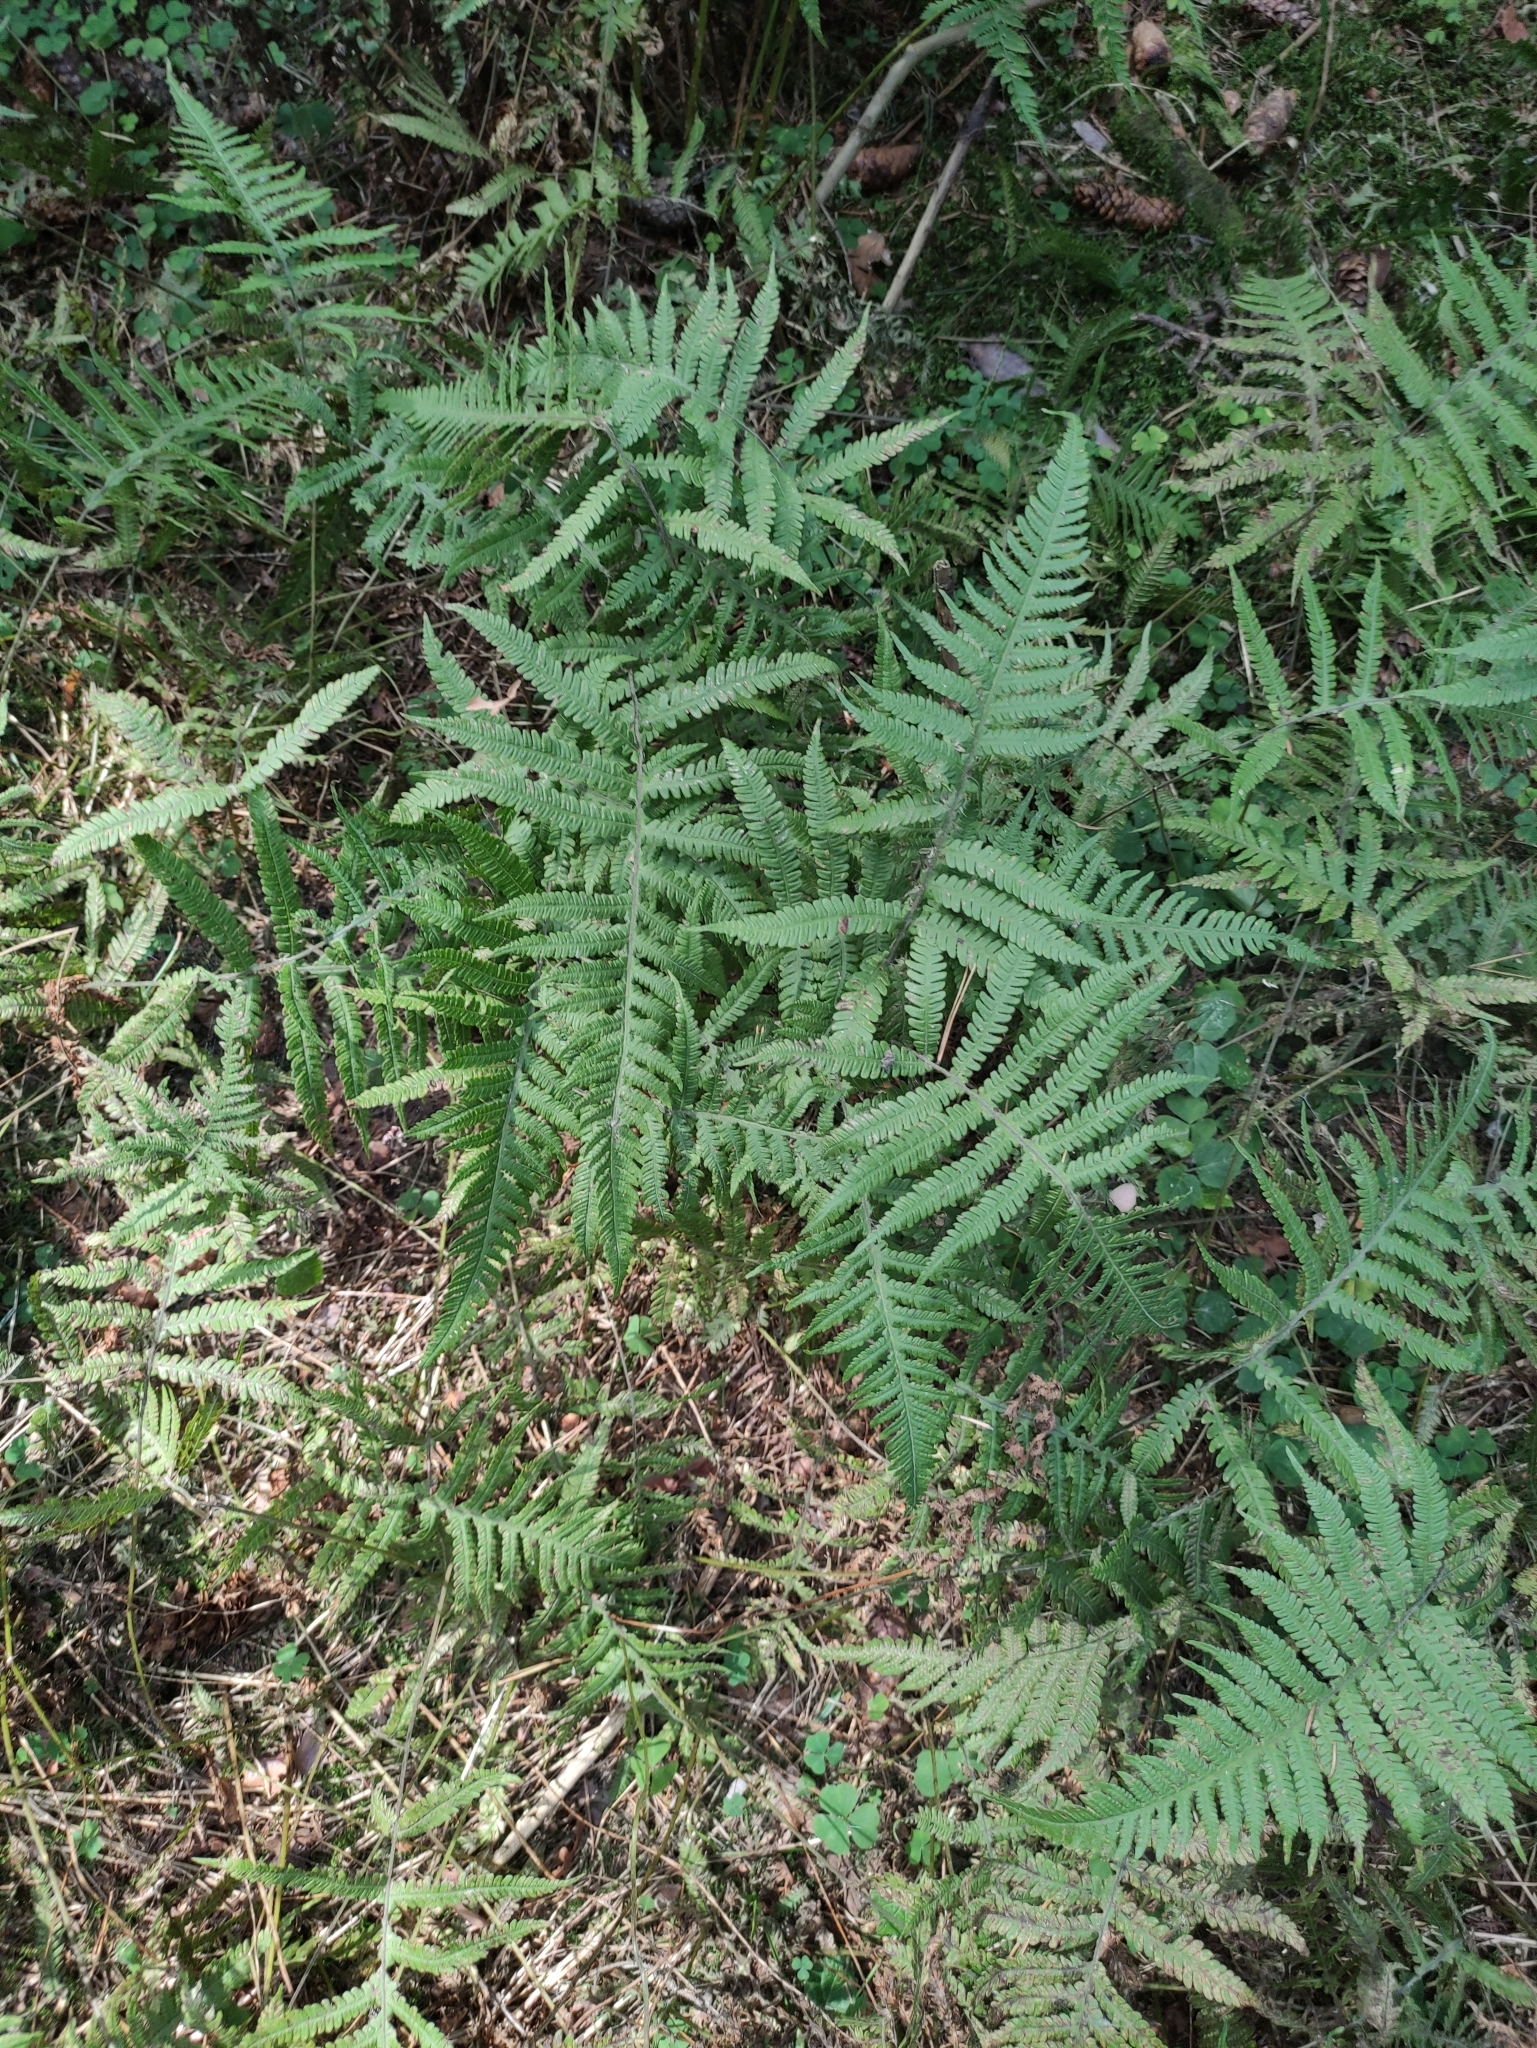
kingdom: Plantae
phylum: Tracheophyta
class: Polypodiopsida
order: Polypodiales
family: Thelypteridaceae
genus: Phegopteris
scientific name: Phegopteris connectilis
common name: Beech fern
